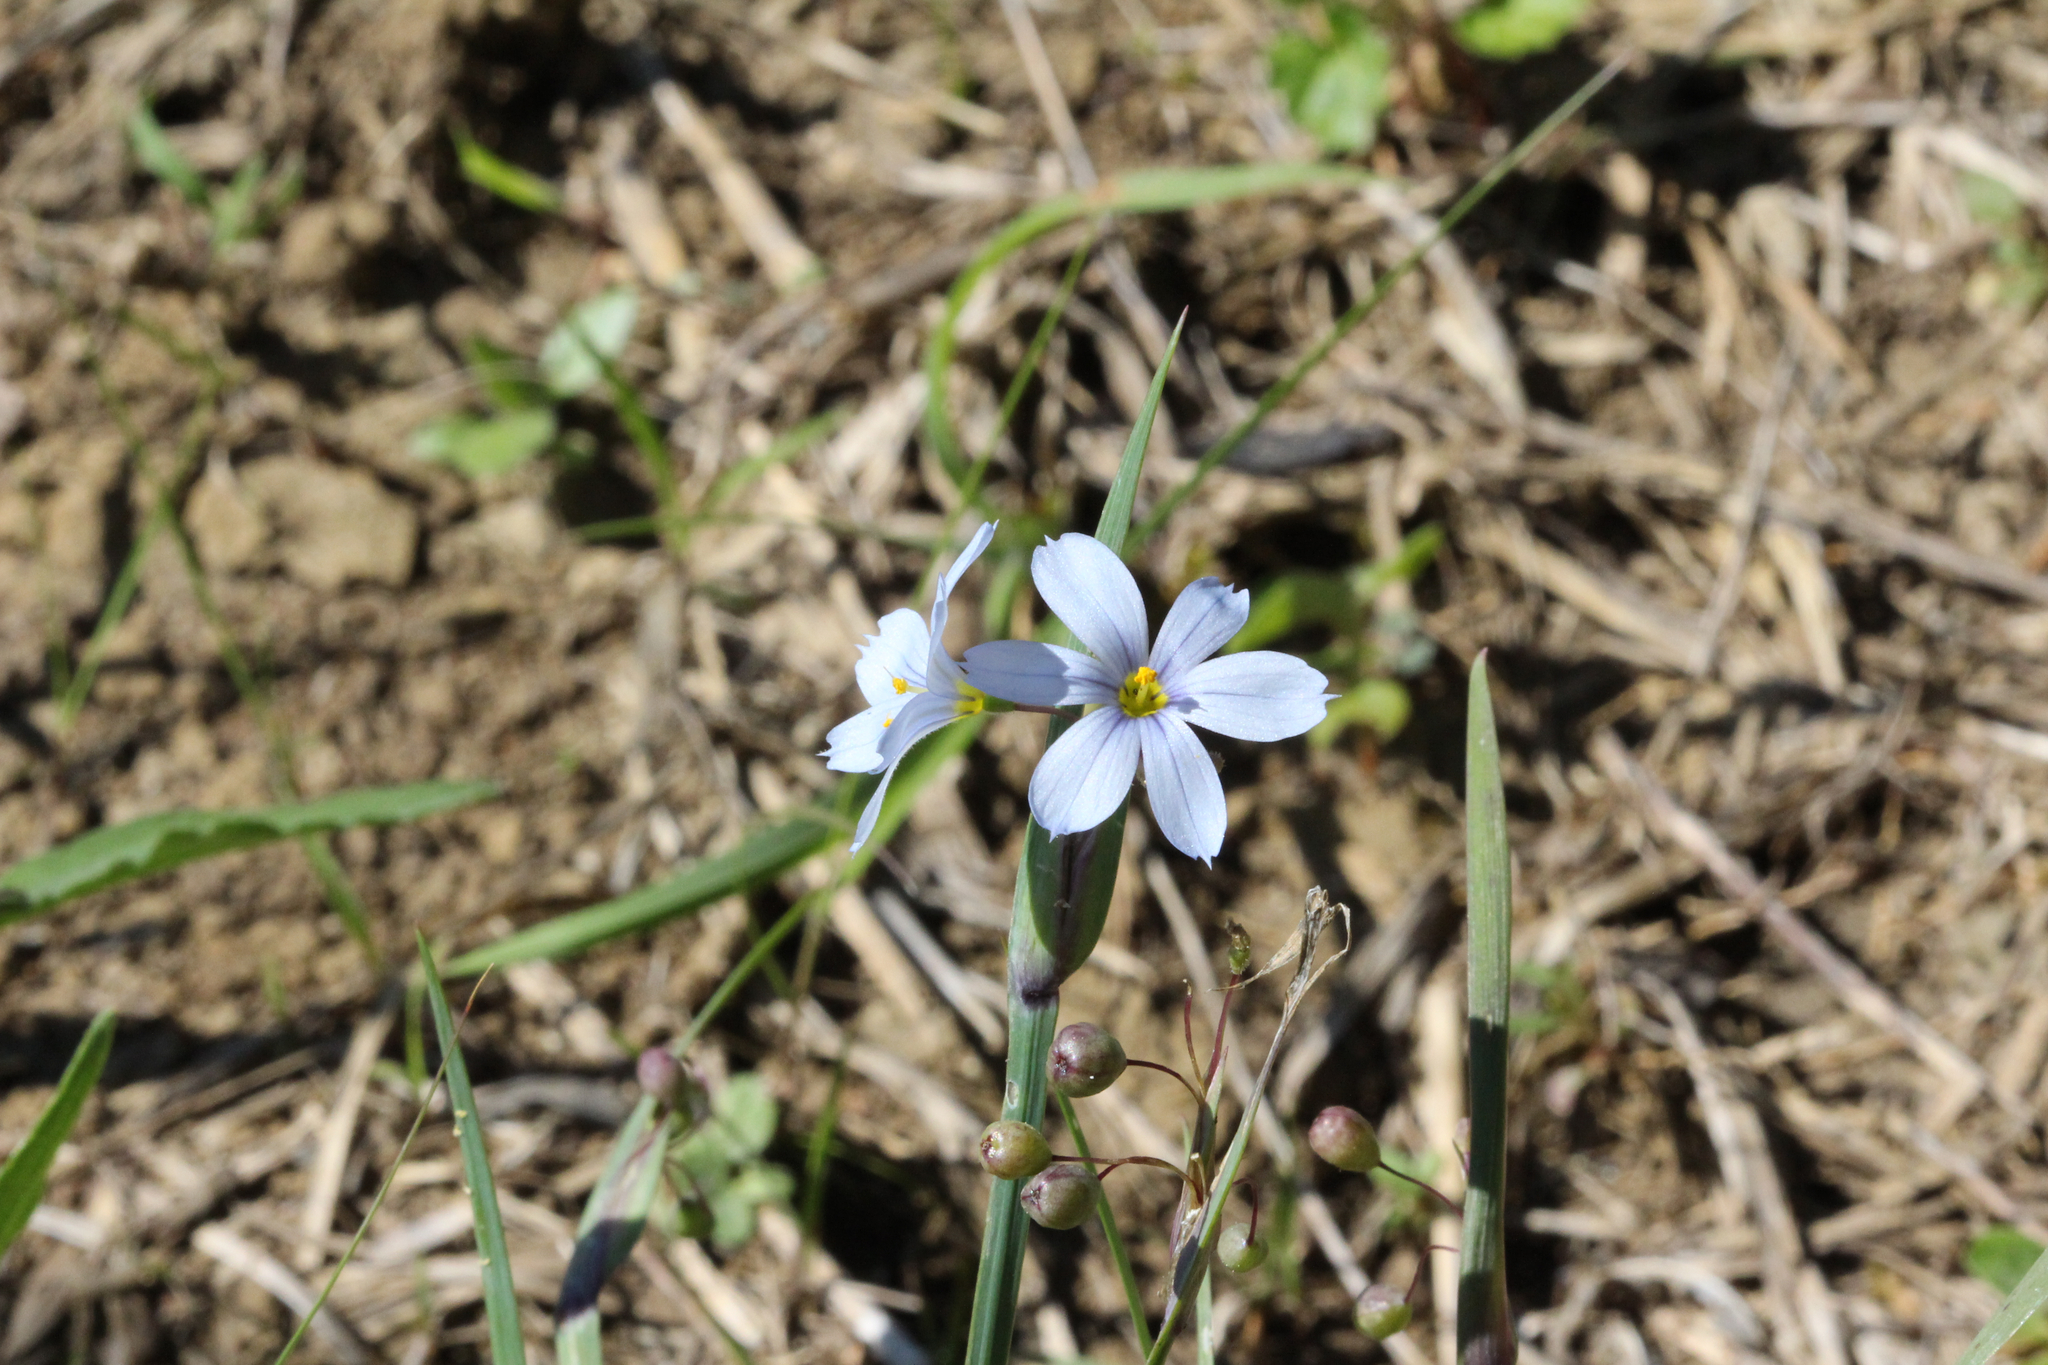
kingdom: Plantae
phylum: Tracheophyta
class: Liliopsida
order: Asparagales
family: Iridaceae
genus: Sisyrinchium
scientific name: Sisyrinchium albidum
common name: Pale blue-eyed-grass
